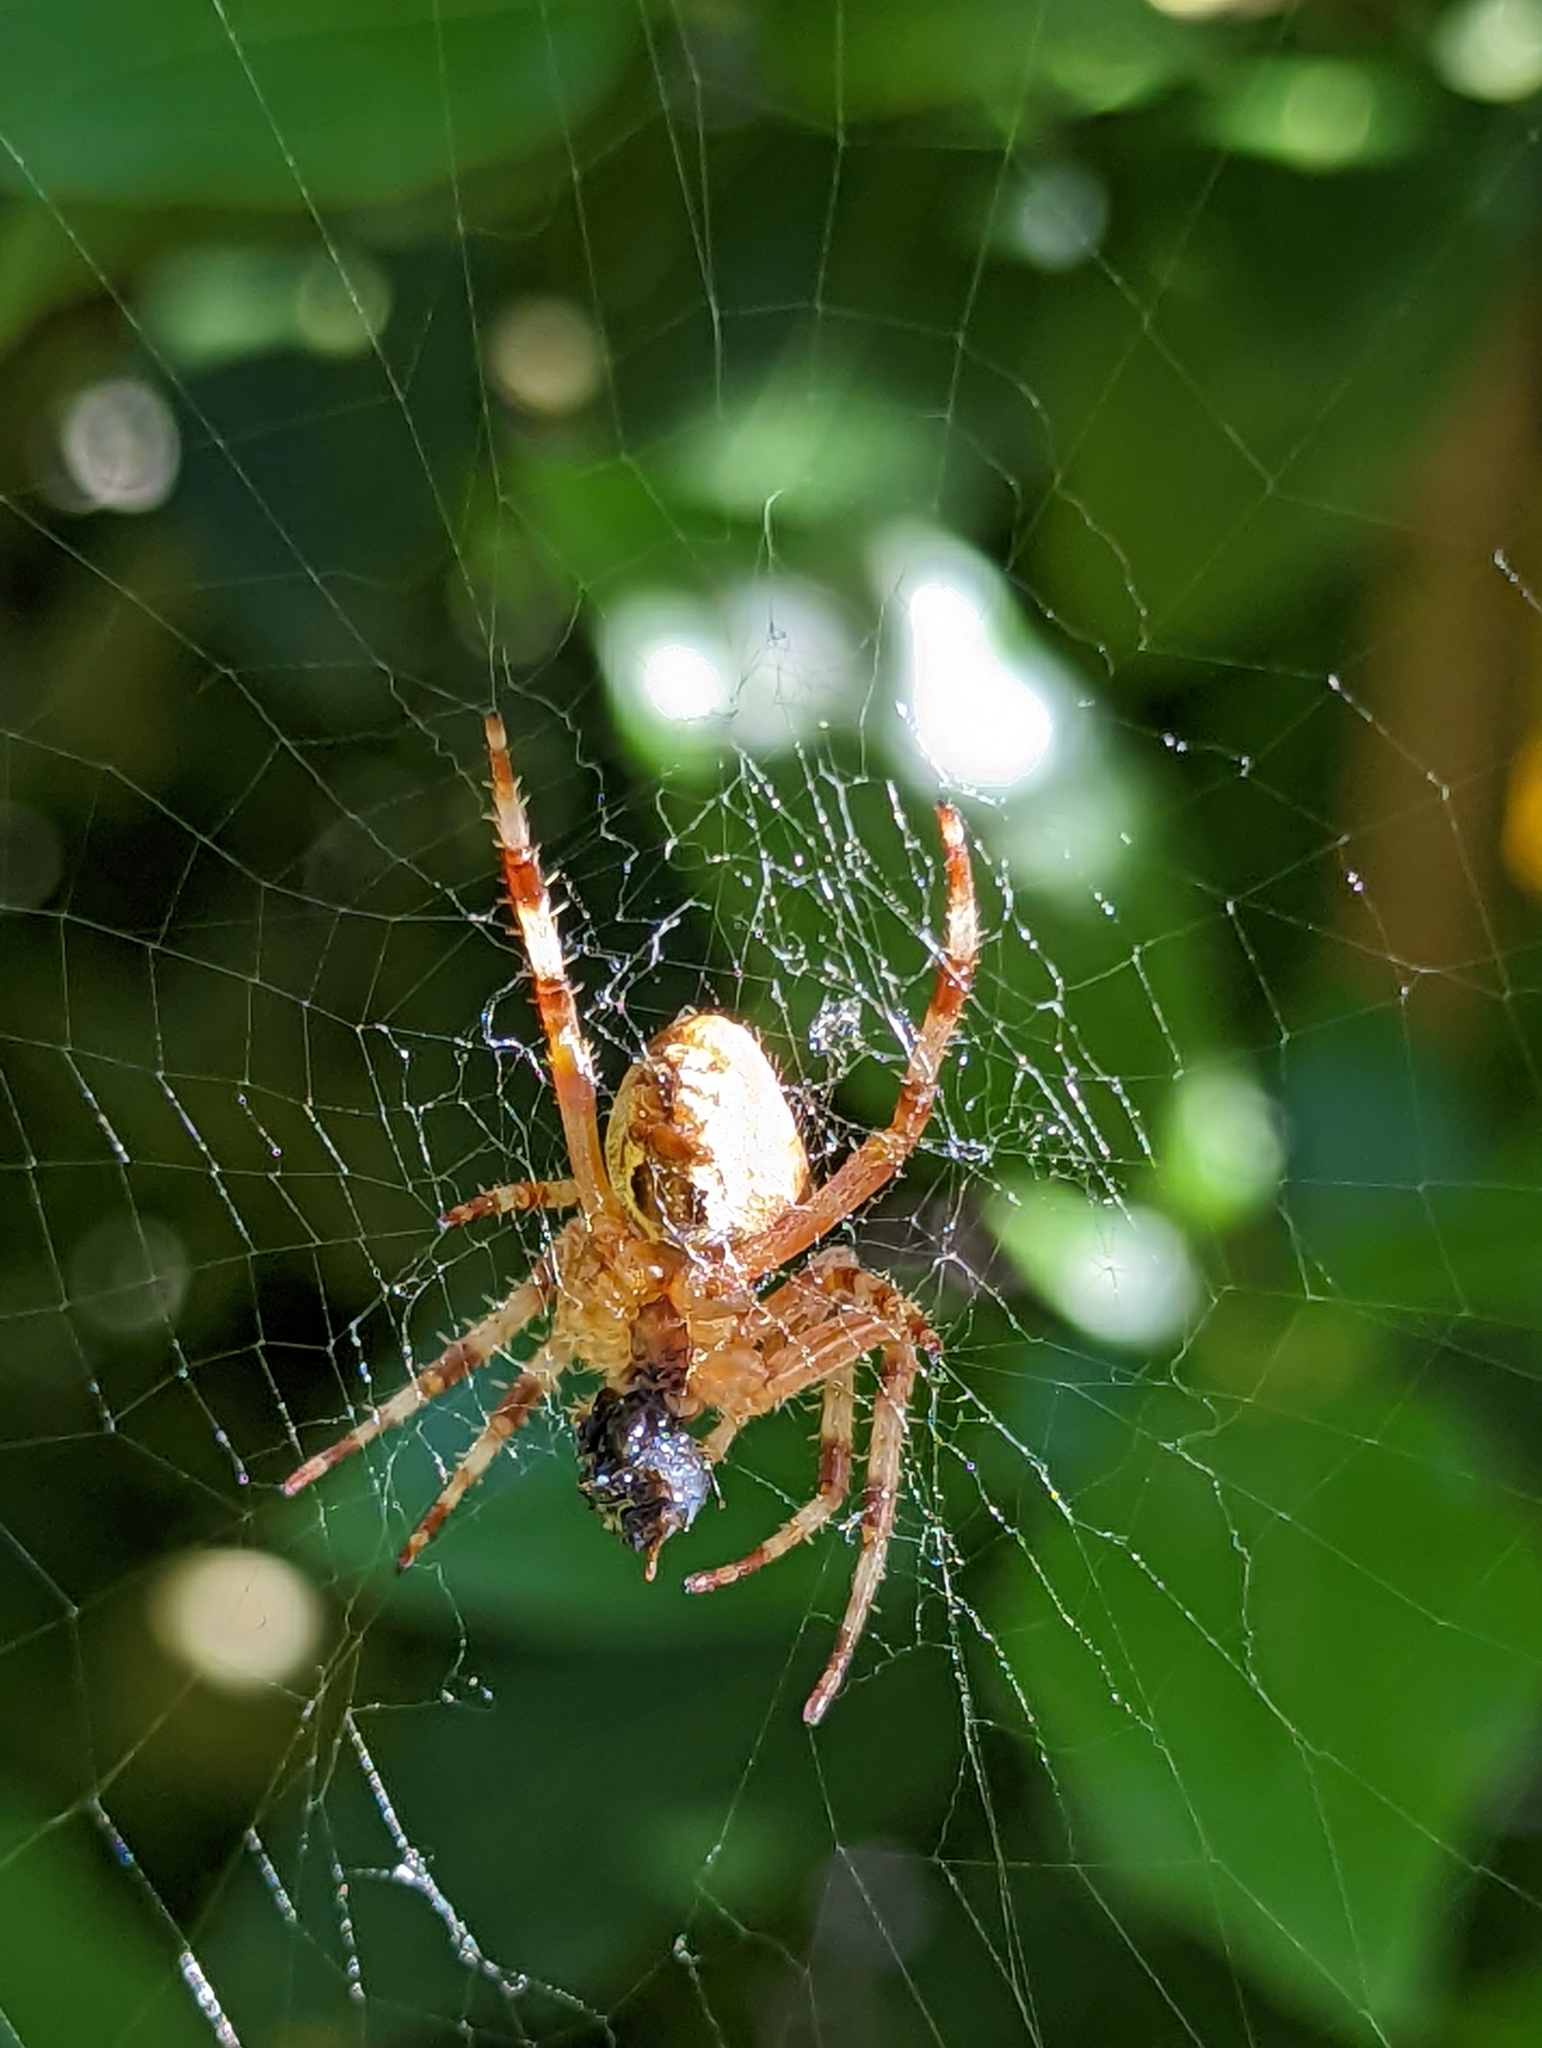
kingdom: Animalia
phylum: Arthropoda
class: Arachnida
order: Araneae
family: Araneidae
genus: Araneus
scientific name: Araneus diadematus
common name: Cross orbweaver
